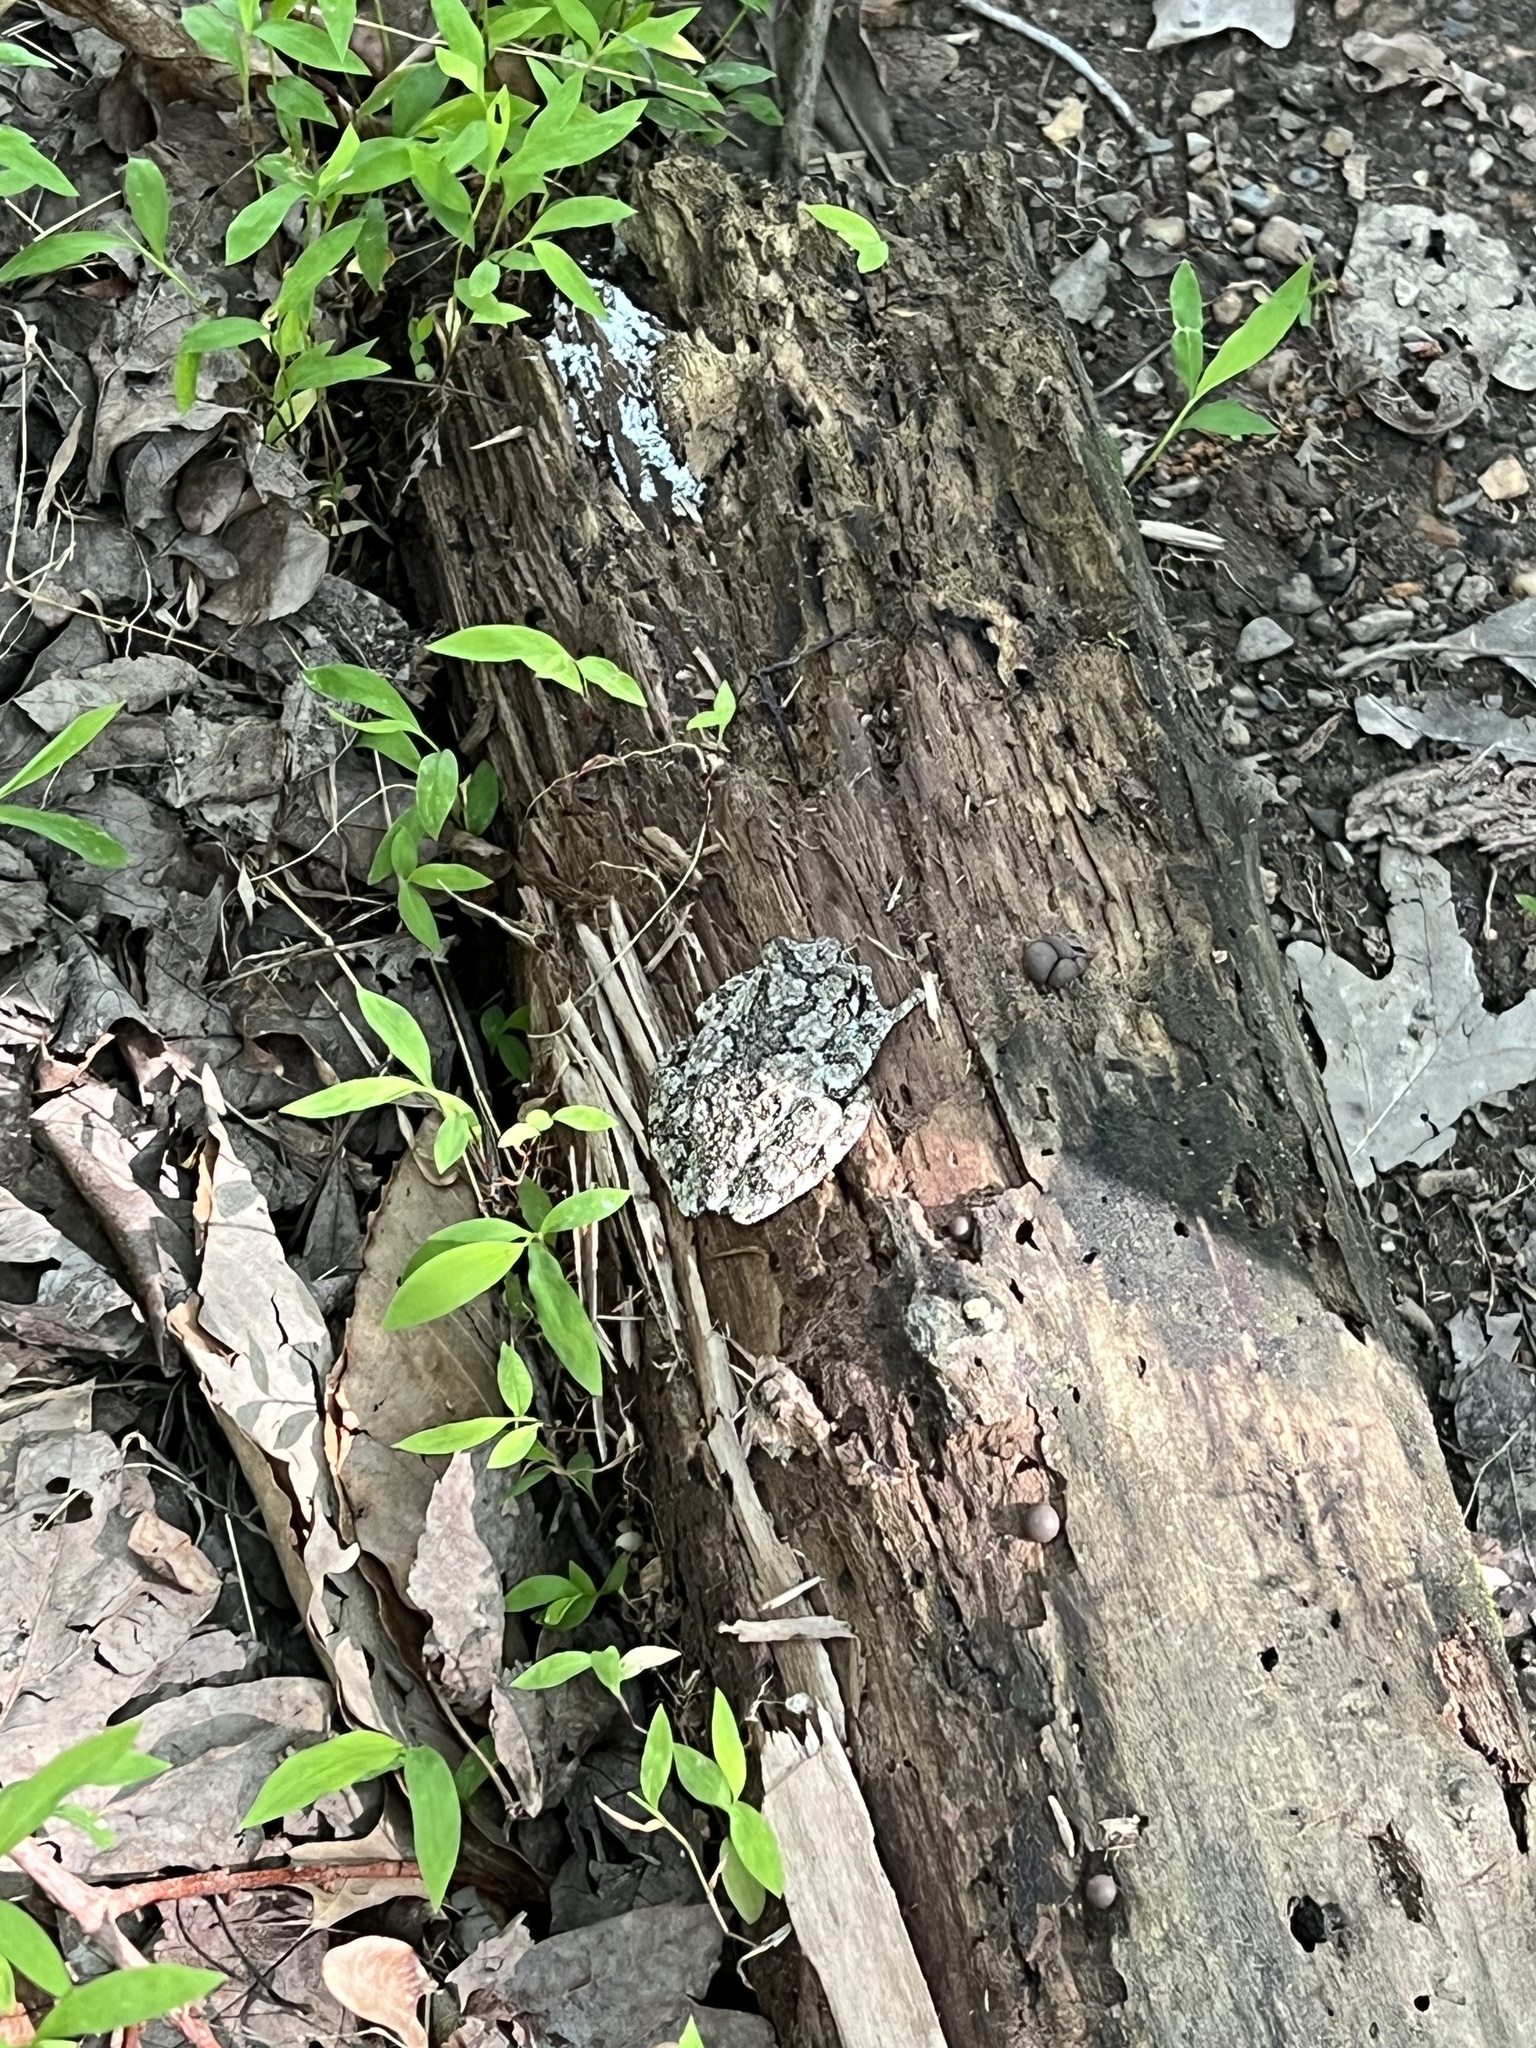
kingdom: Animalia
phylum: Chordata
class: Amphibia
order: Anura
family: Hylidae
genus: Hyla
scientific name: Hyla
